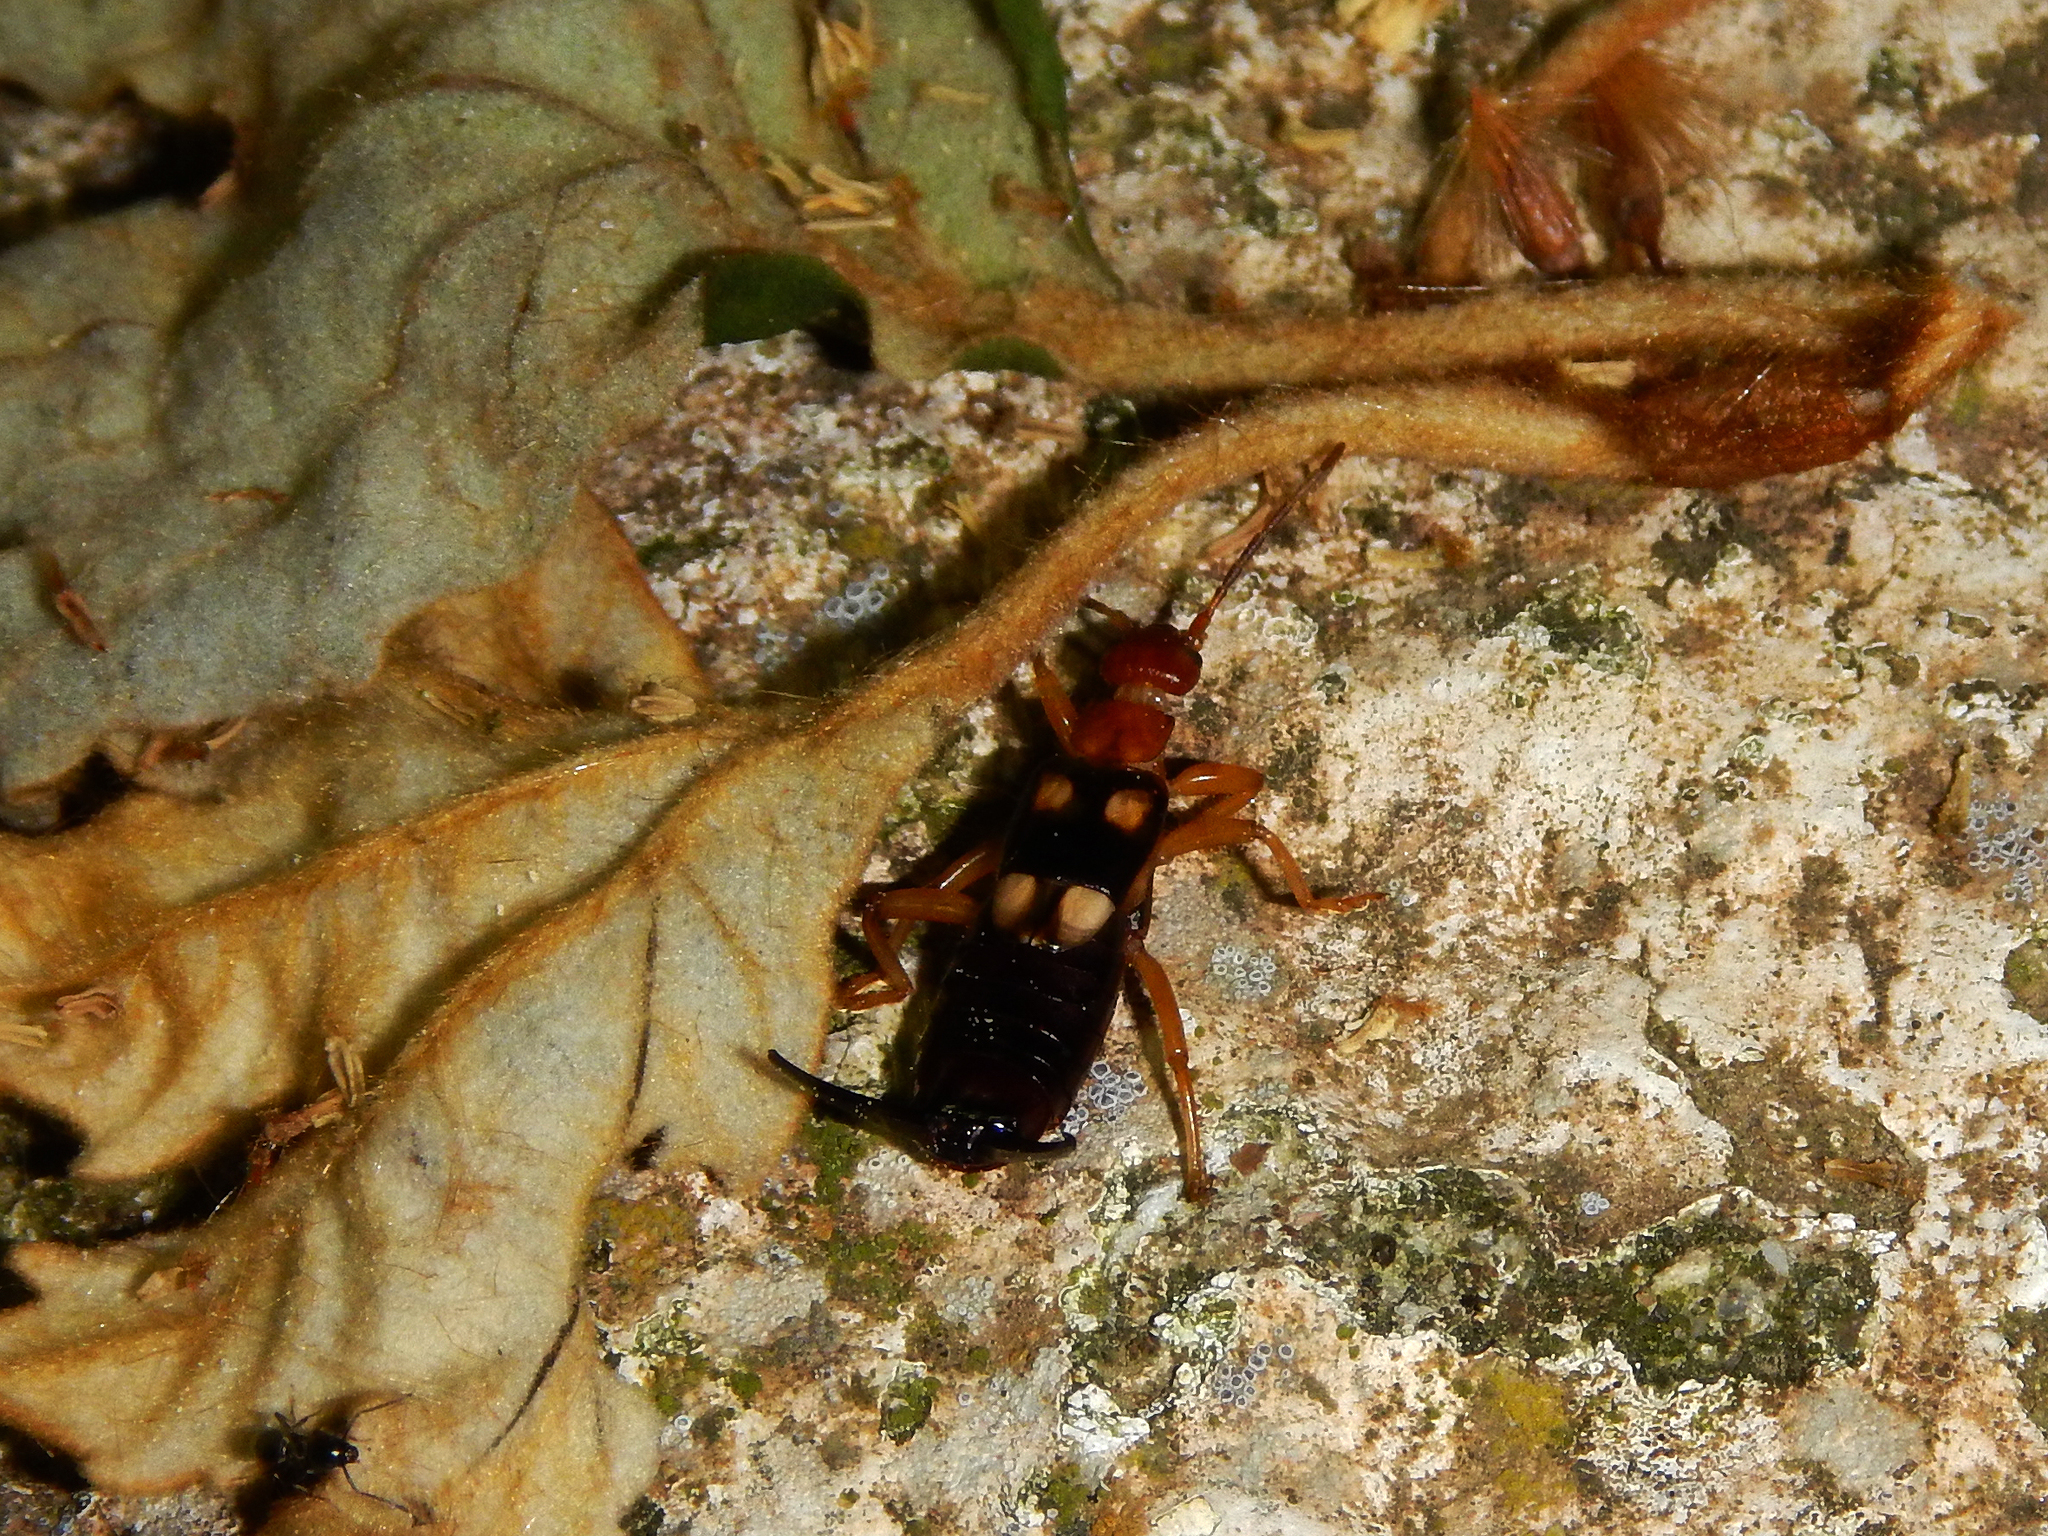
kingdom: Animalia
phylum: Arthropoda
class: Insecta
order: Dermaptera
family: Forficulidae
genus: Forficula
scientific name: Forficula smyrnensis
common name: Smyrna earwig
